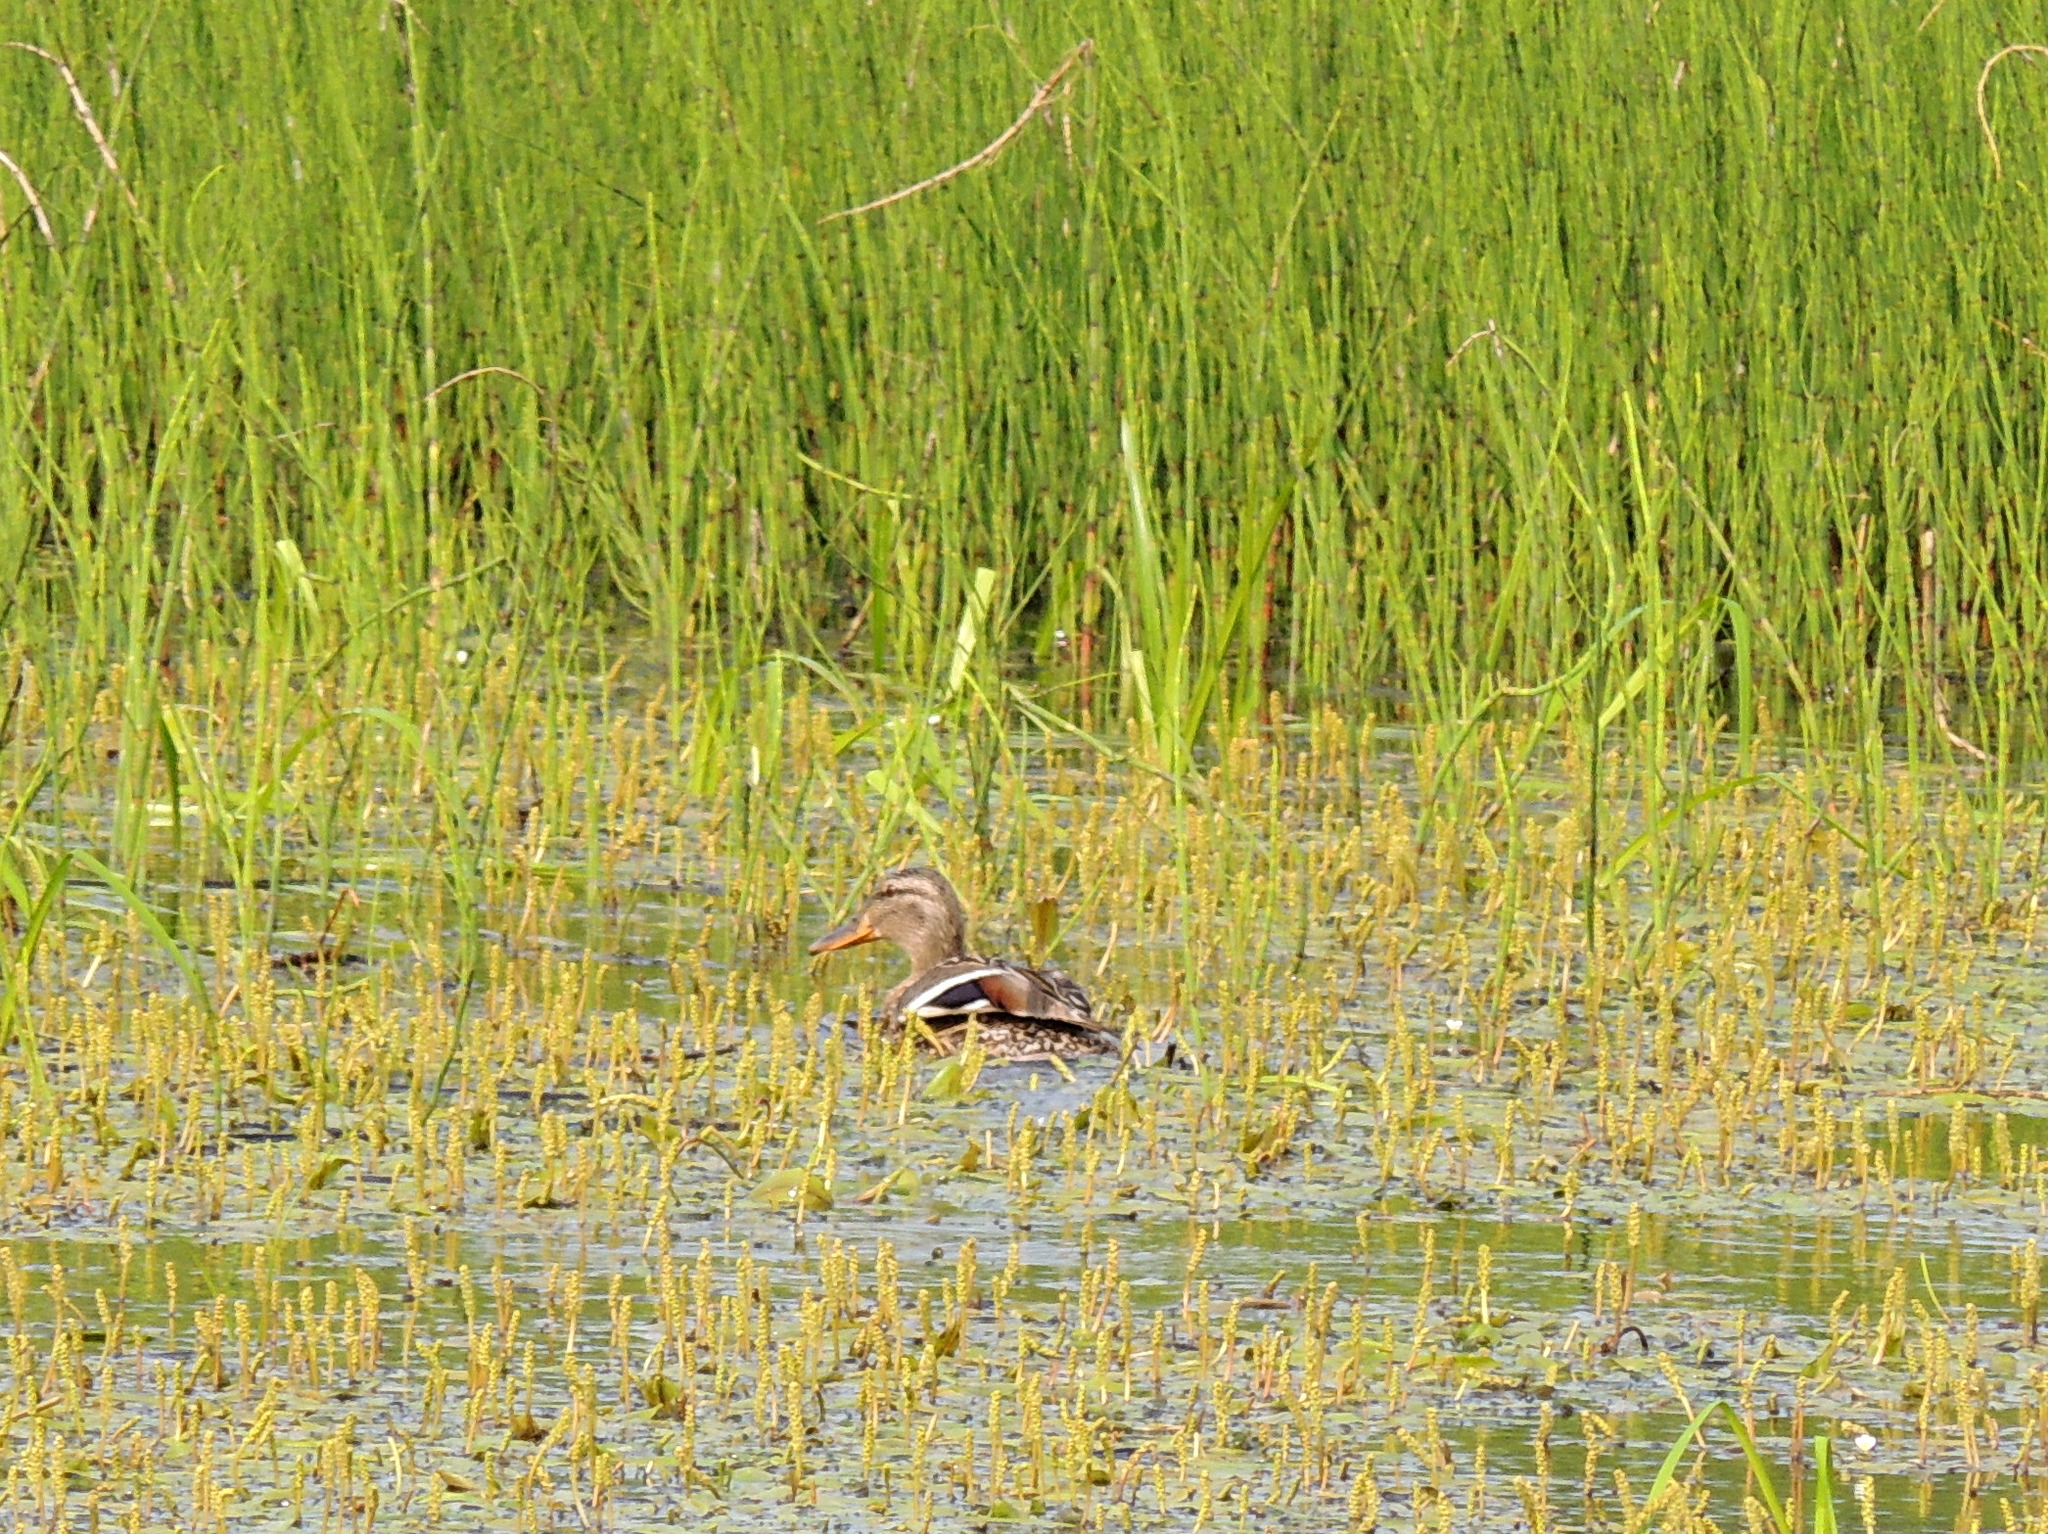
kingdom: Animalia
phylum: Chordata
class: Aves
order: Anseriformes
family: Anatidae
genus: Anas
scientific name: Anas platyrhynchos
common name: Mallard
